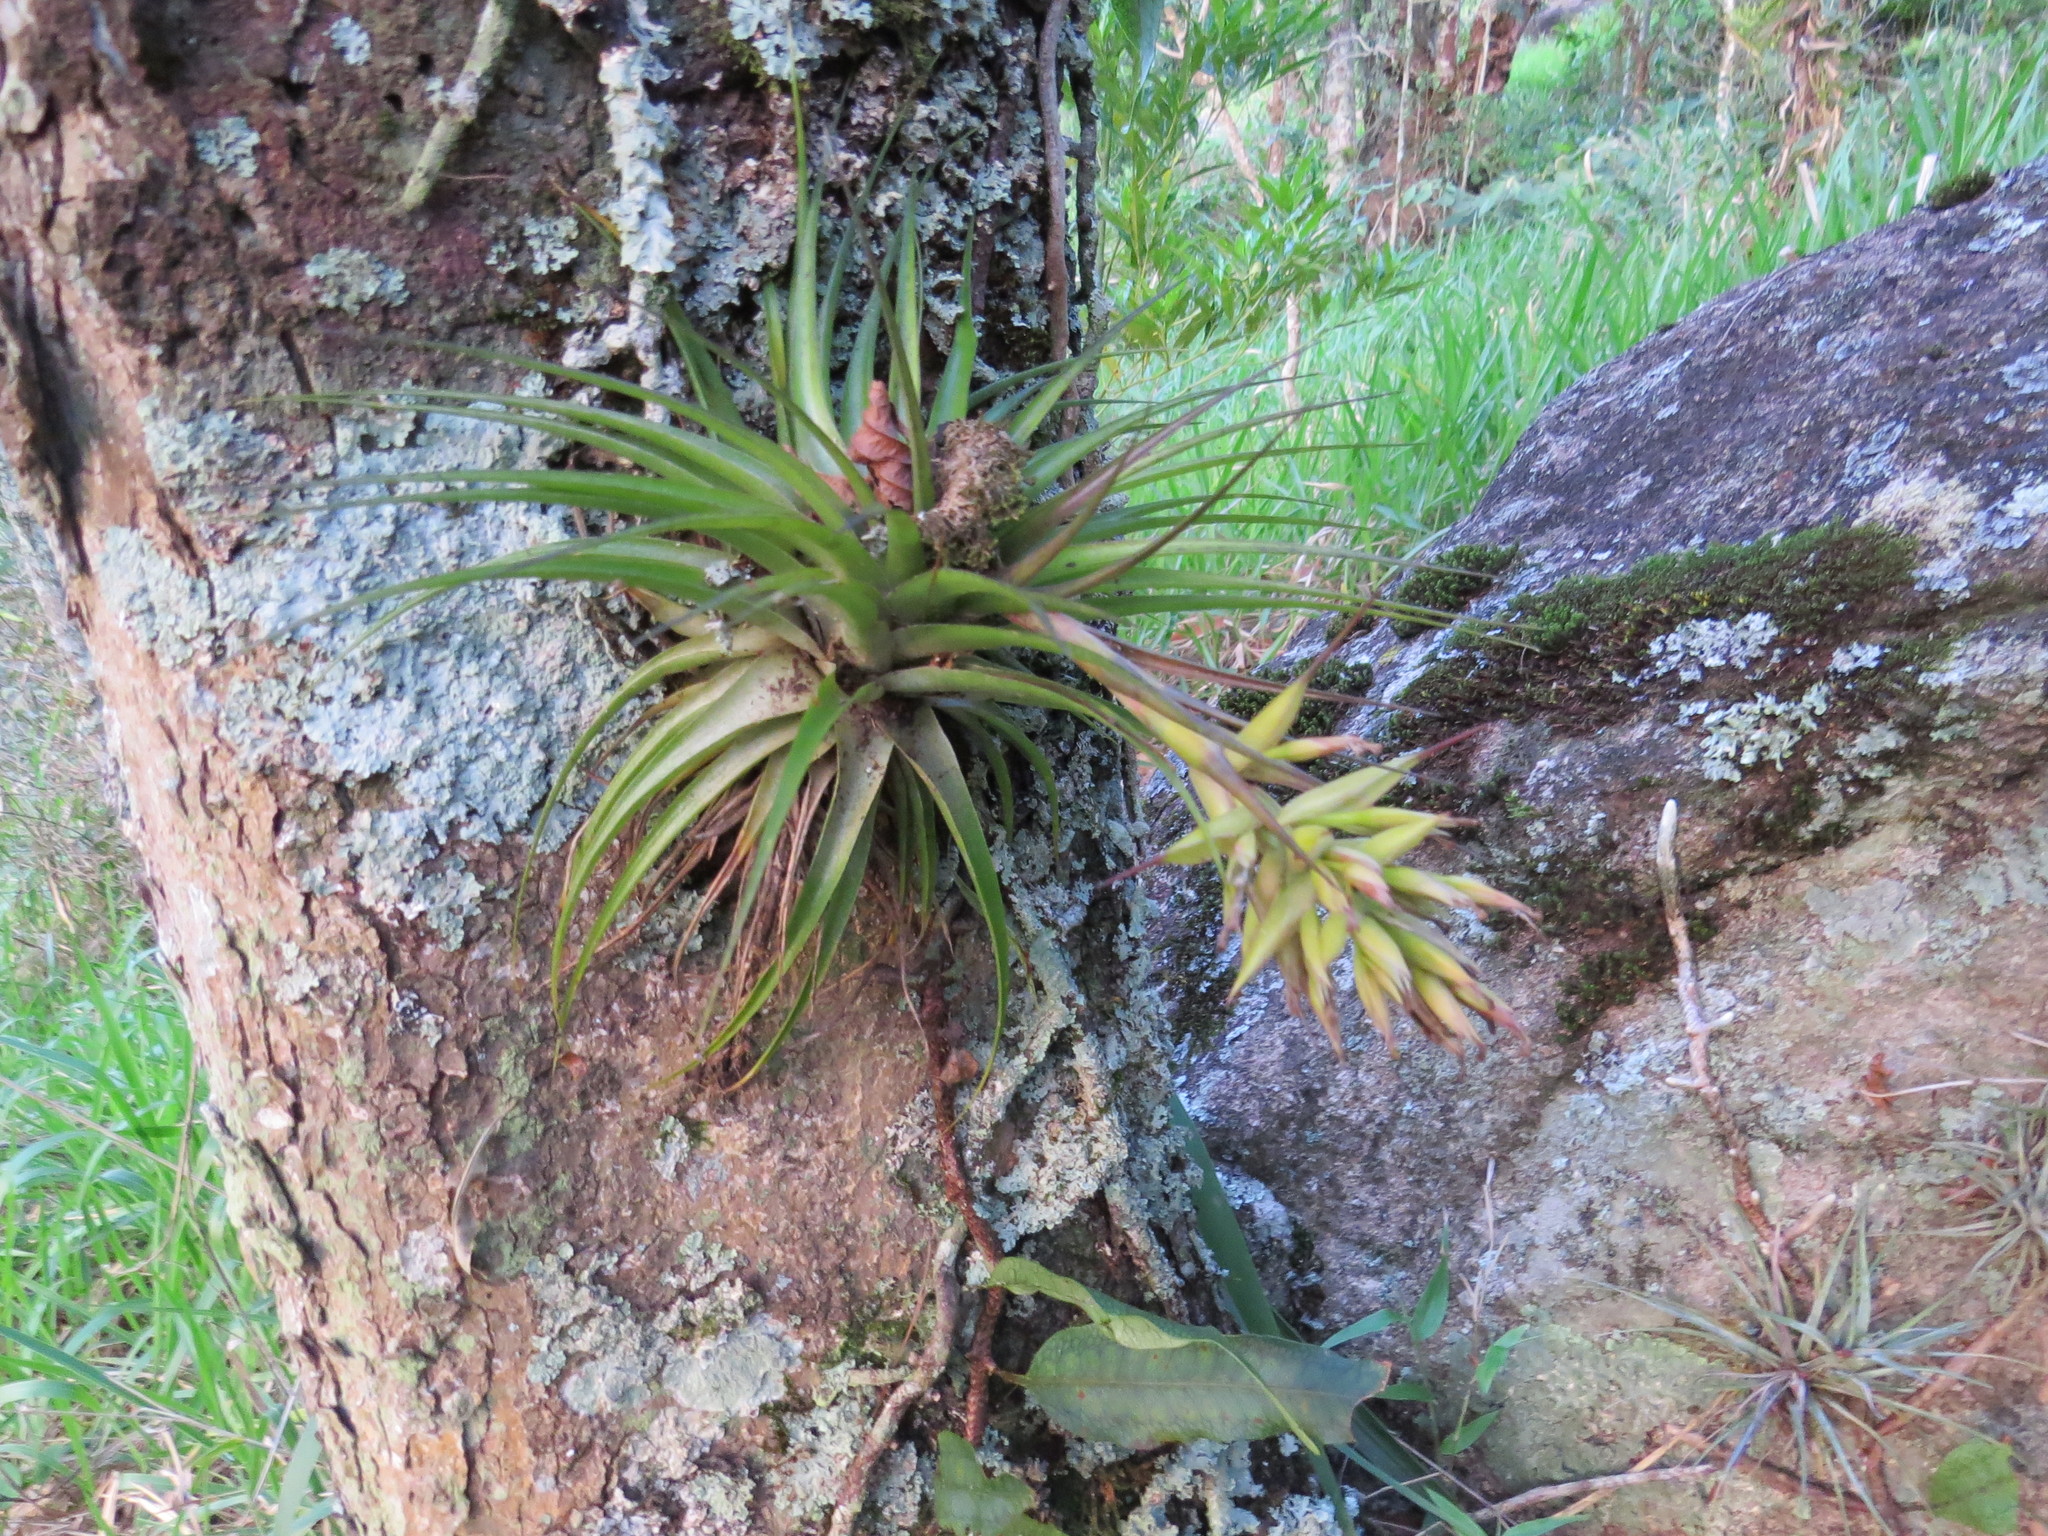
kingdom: Plantae
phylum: Tracheophyta
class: Liliopsida
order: Poales
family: Bromeliaceae
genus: Tillandsia
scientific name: Tillandsia geminiflora
